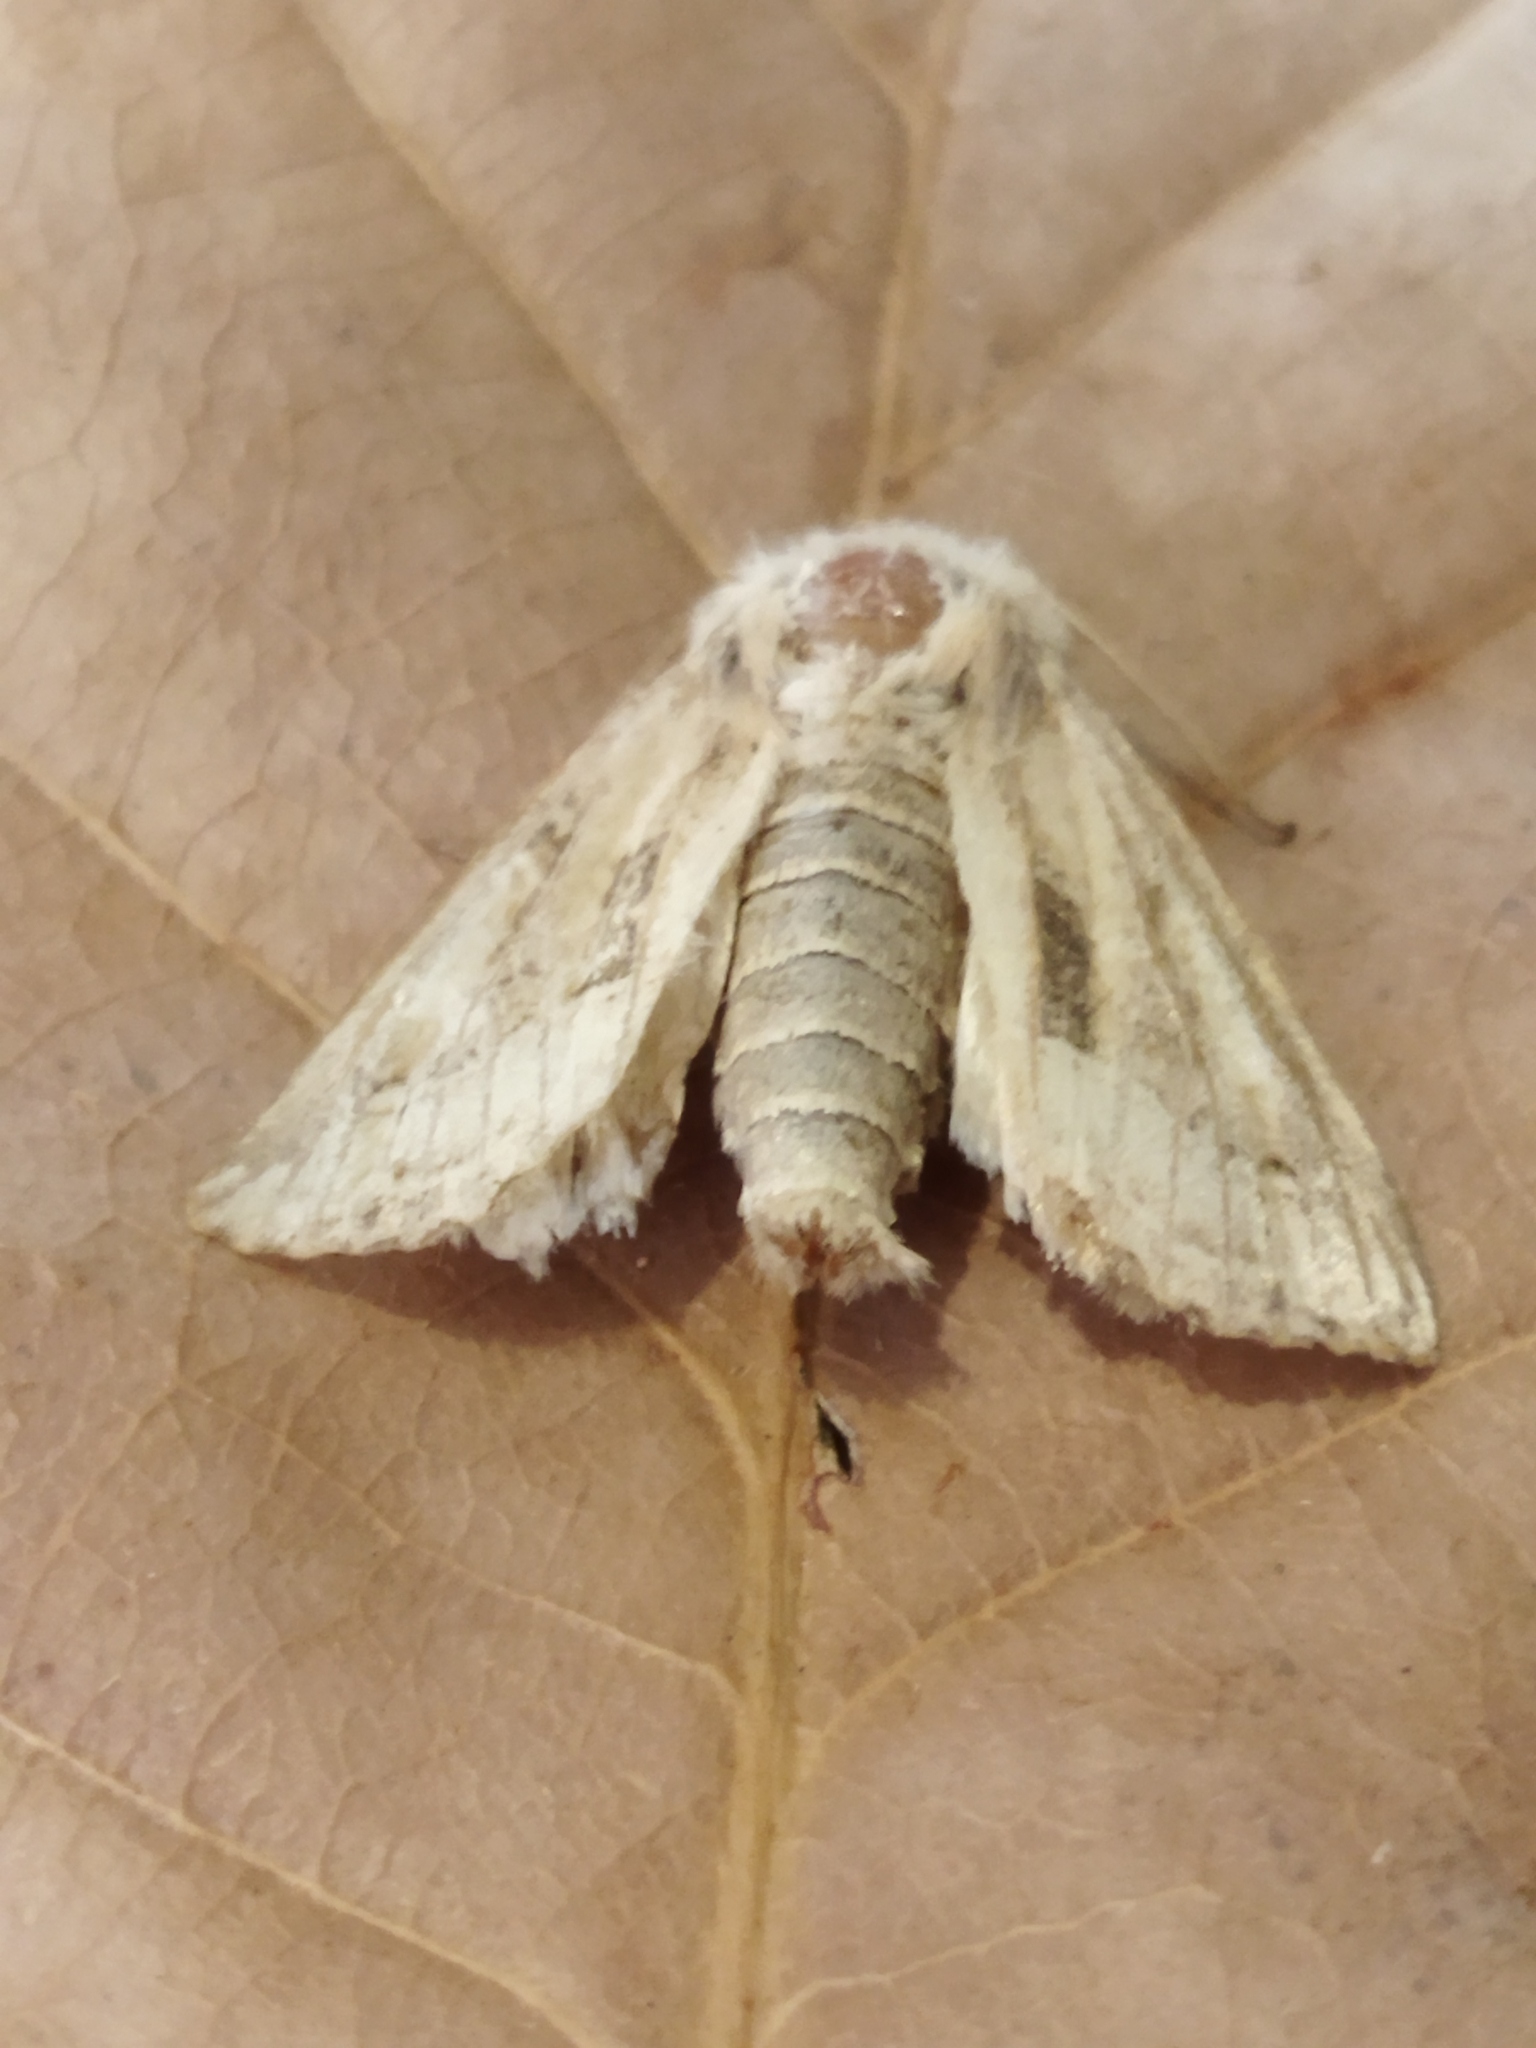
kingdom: Animalia
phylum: Arthropoda
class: Insecta
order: Lepidoptera
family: Noctuidae
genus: Luperina
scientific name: Luperina dumerilii
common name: Dumeril's rustic
